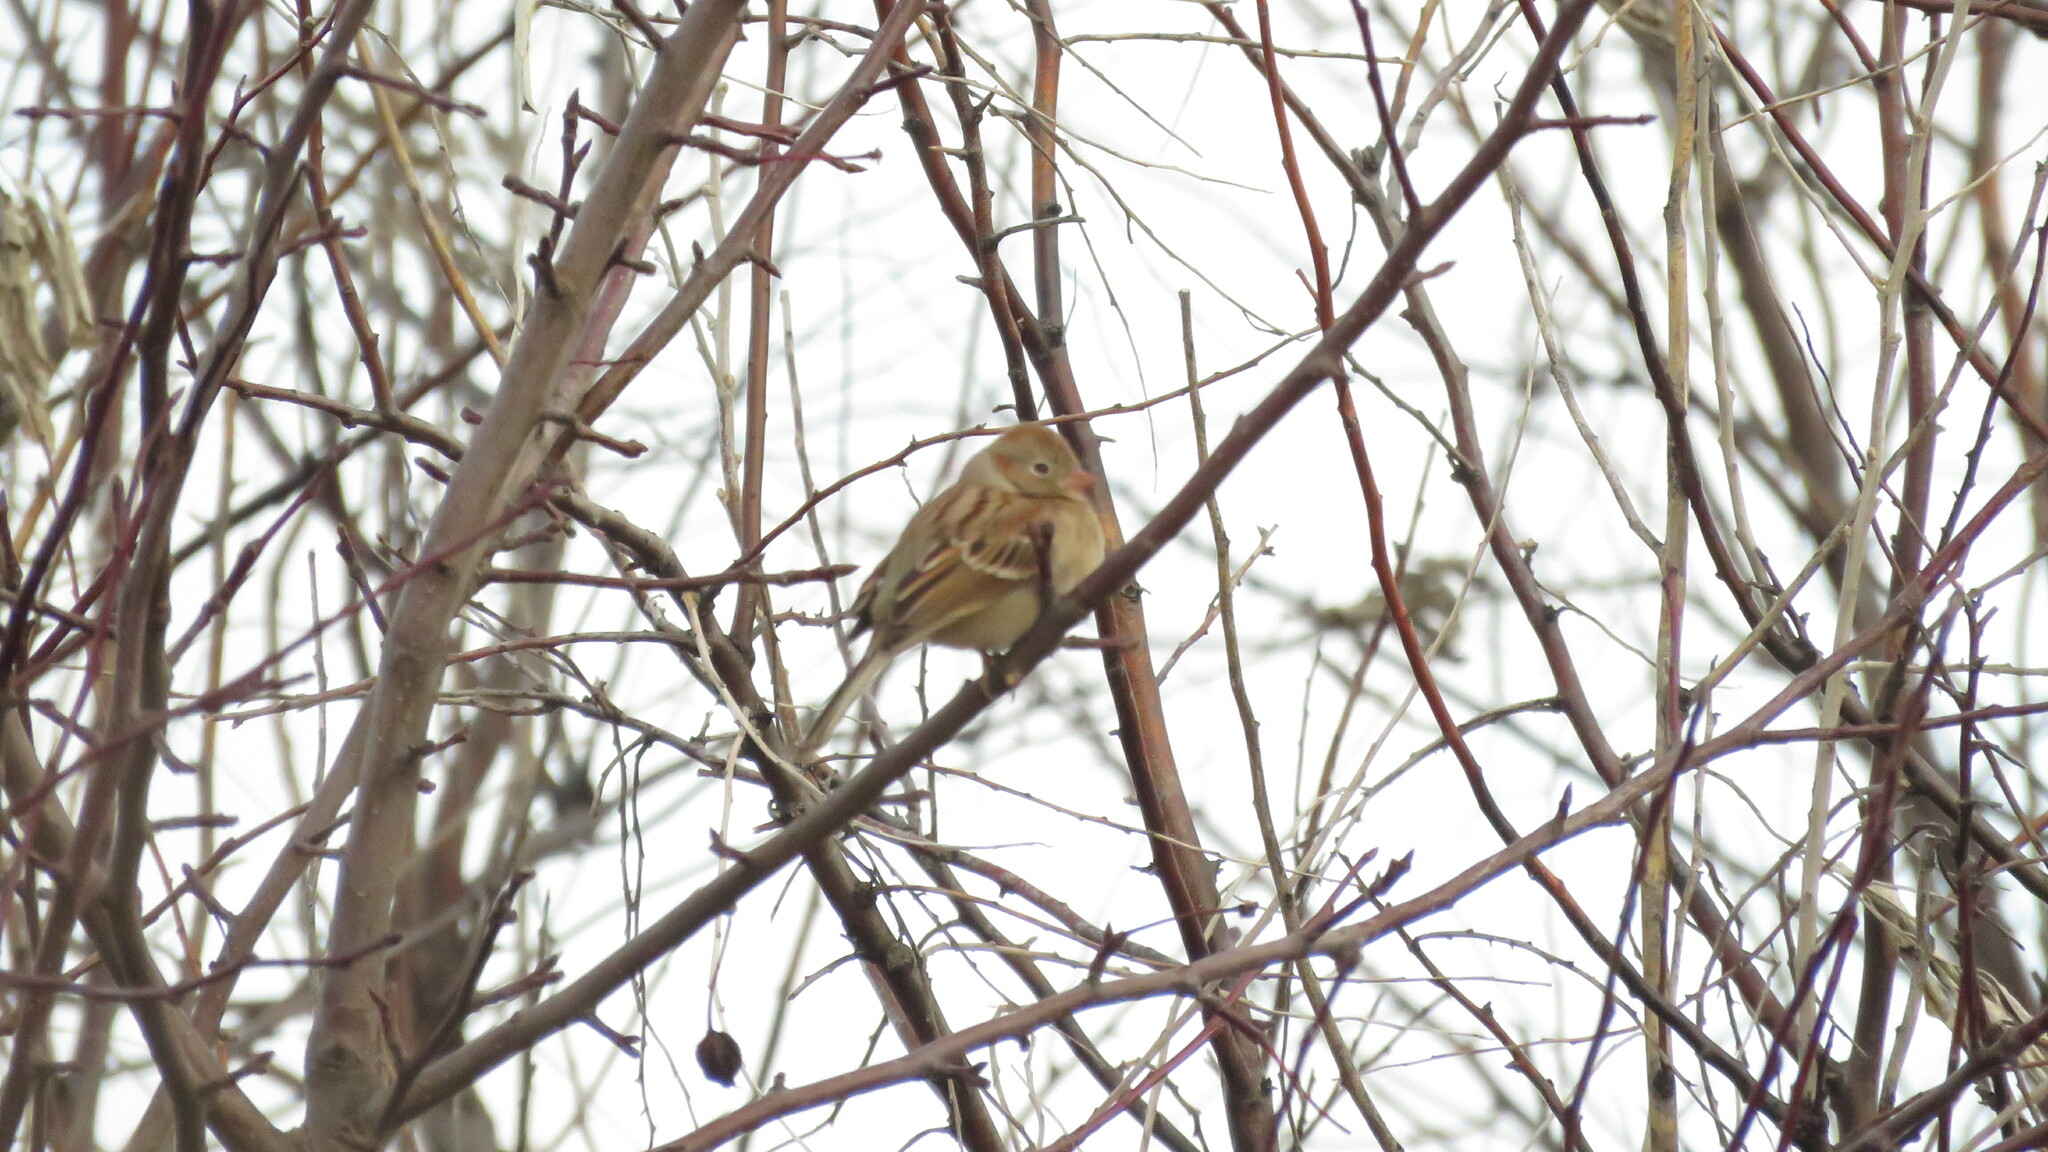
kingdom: Animalia
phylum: Chordata
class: Aves
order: Passeriformes
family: Passerellidae
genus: Spizella
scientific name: Spizella pusilla
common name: Field sparrow
